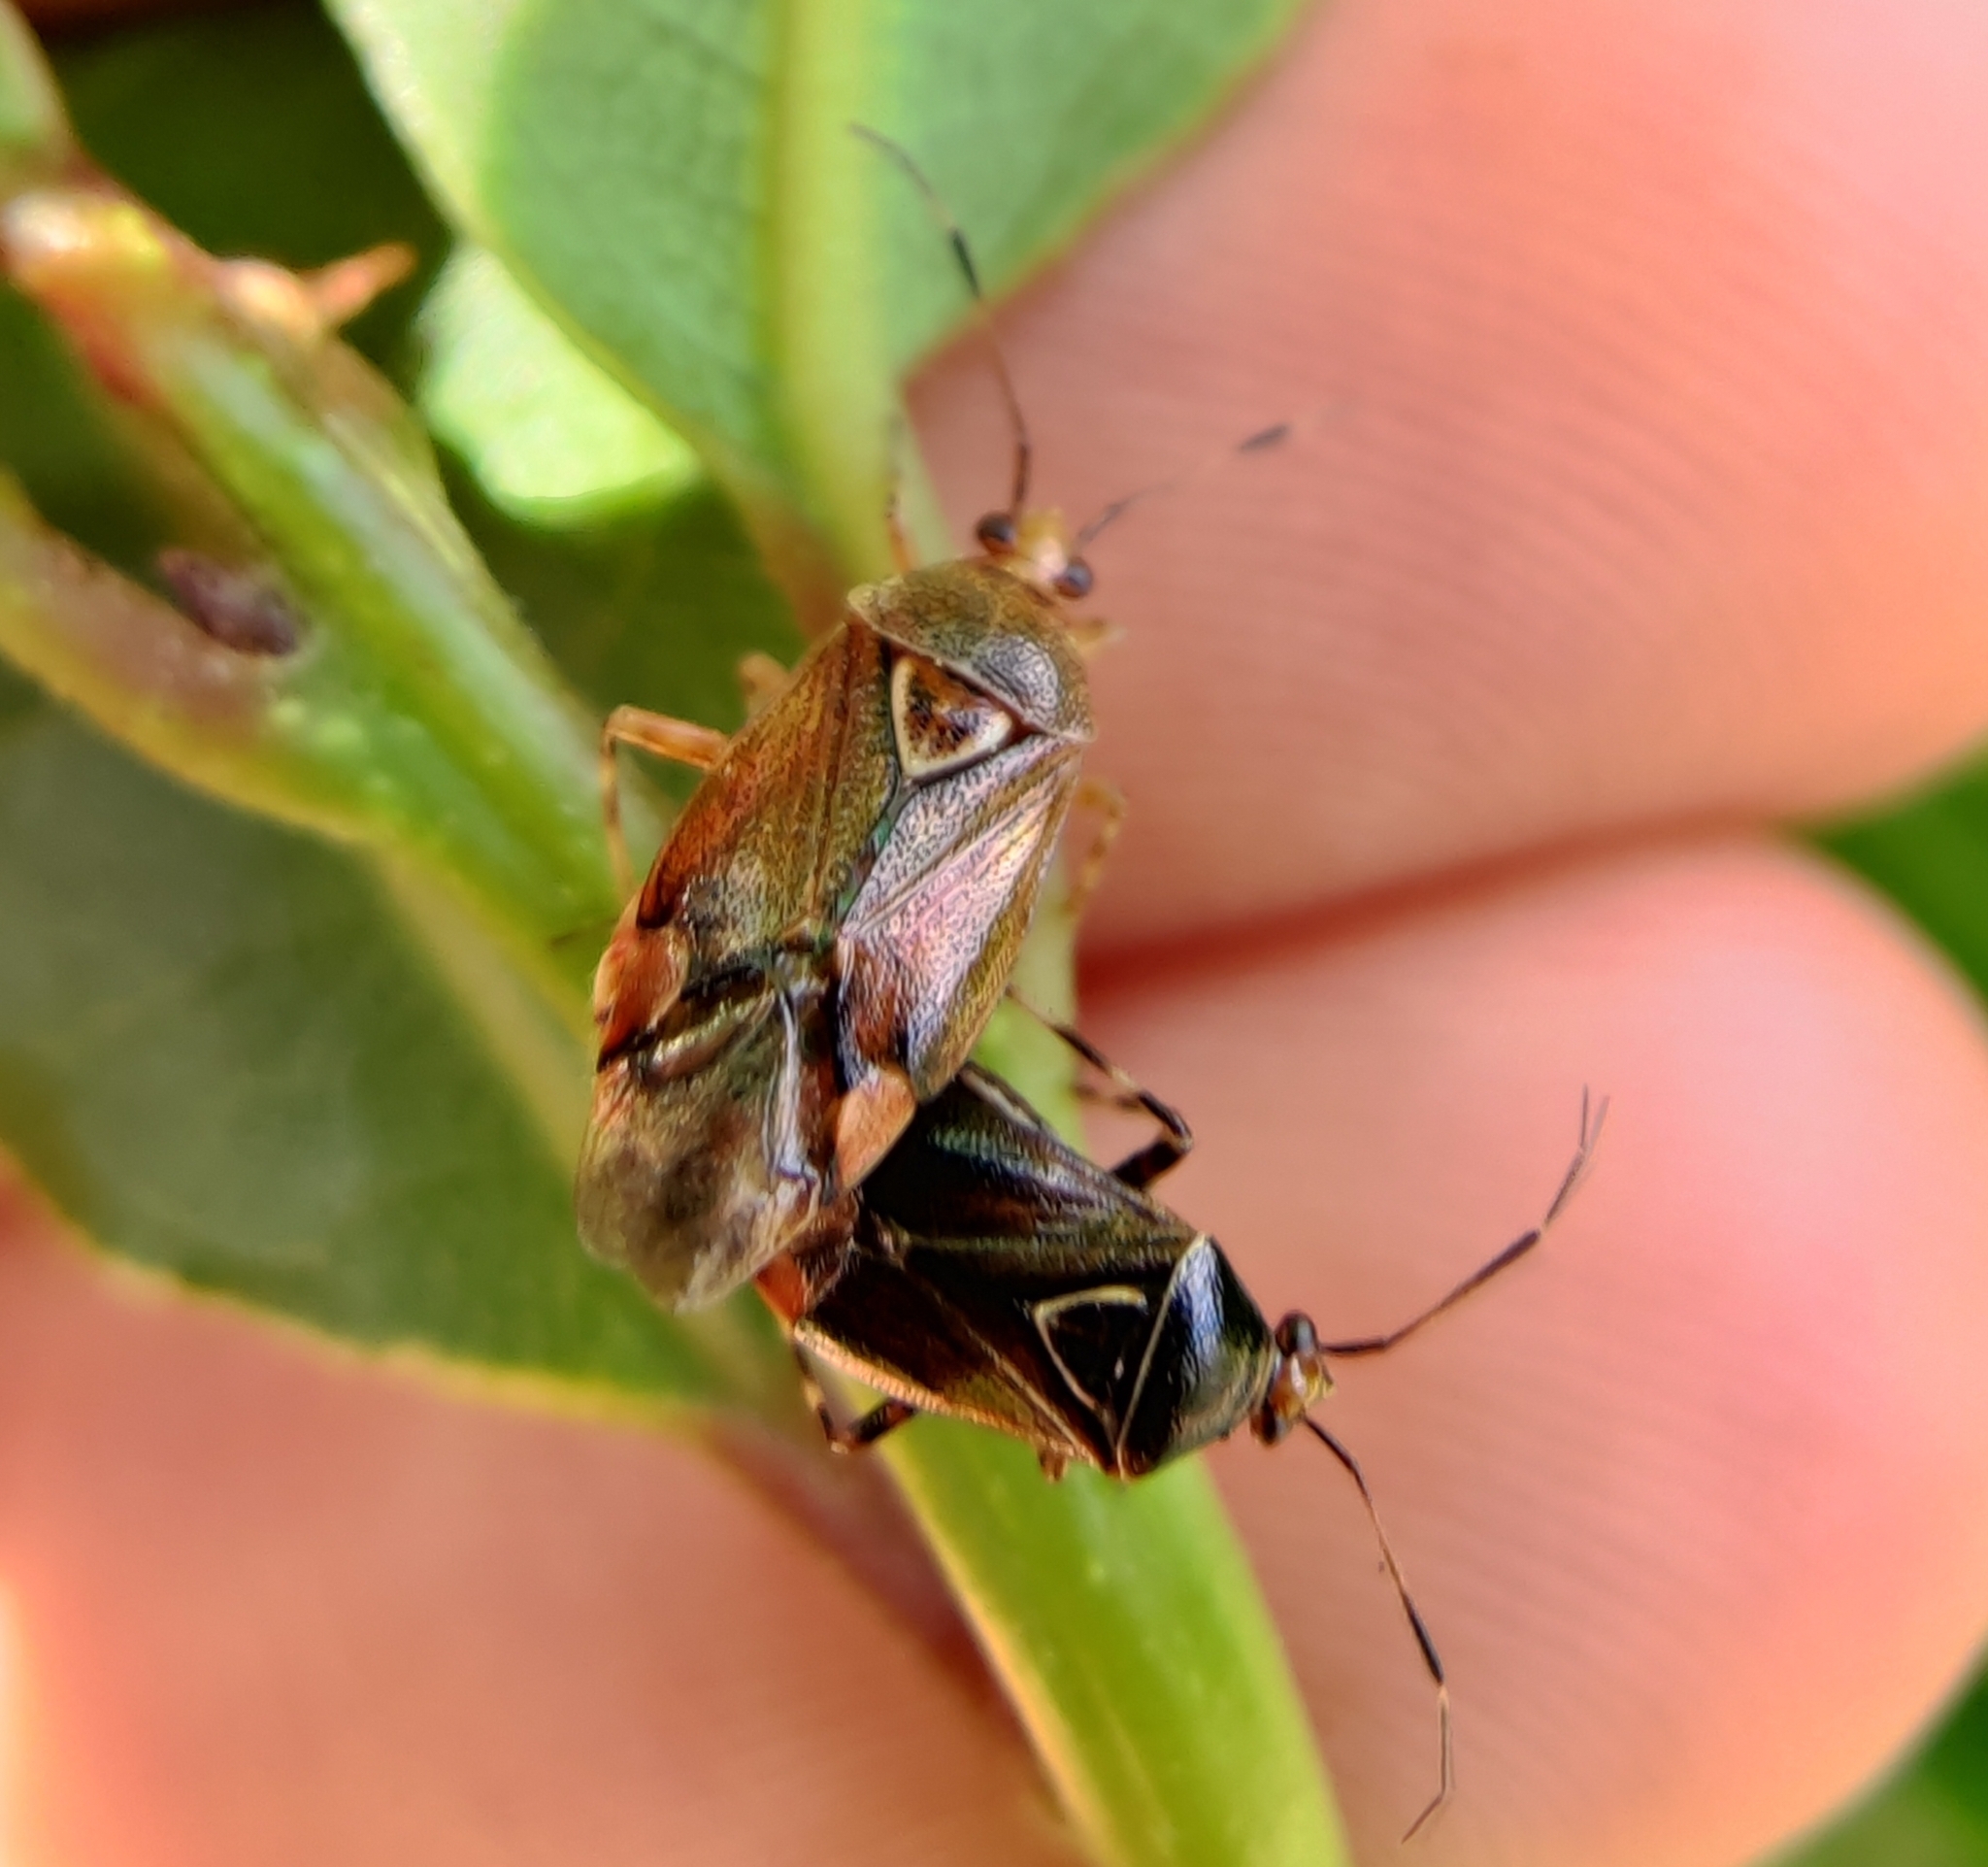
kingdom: Animalia
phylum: Arthropoda
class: Insecta
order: Hemiptera
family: Miridae
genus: Deraeocoris
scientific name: Deraeocoris flavilinea
